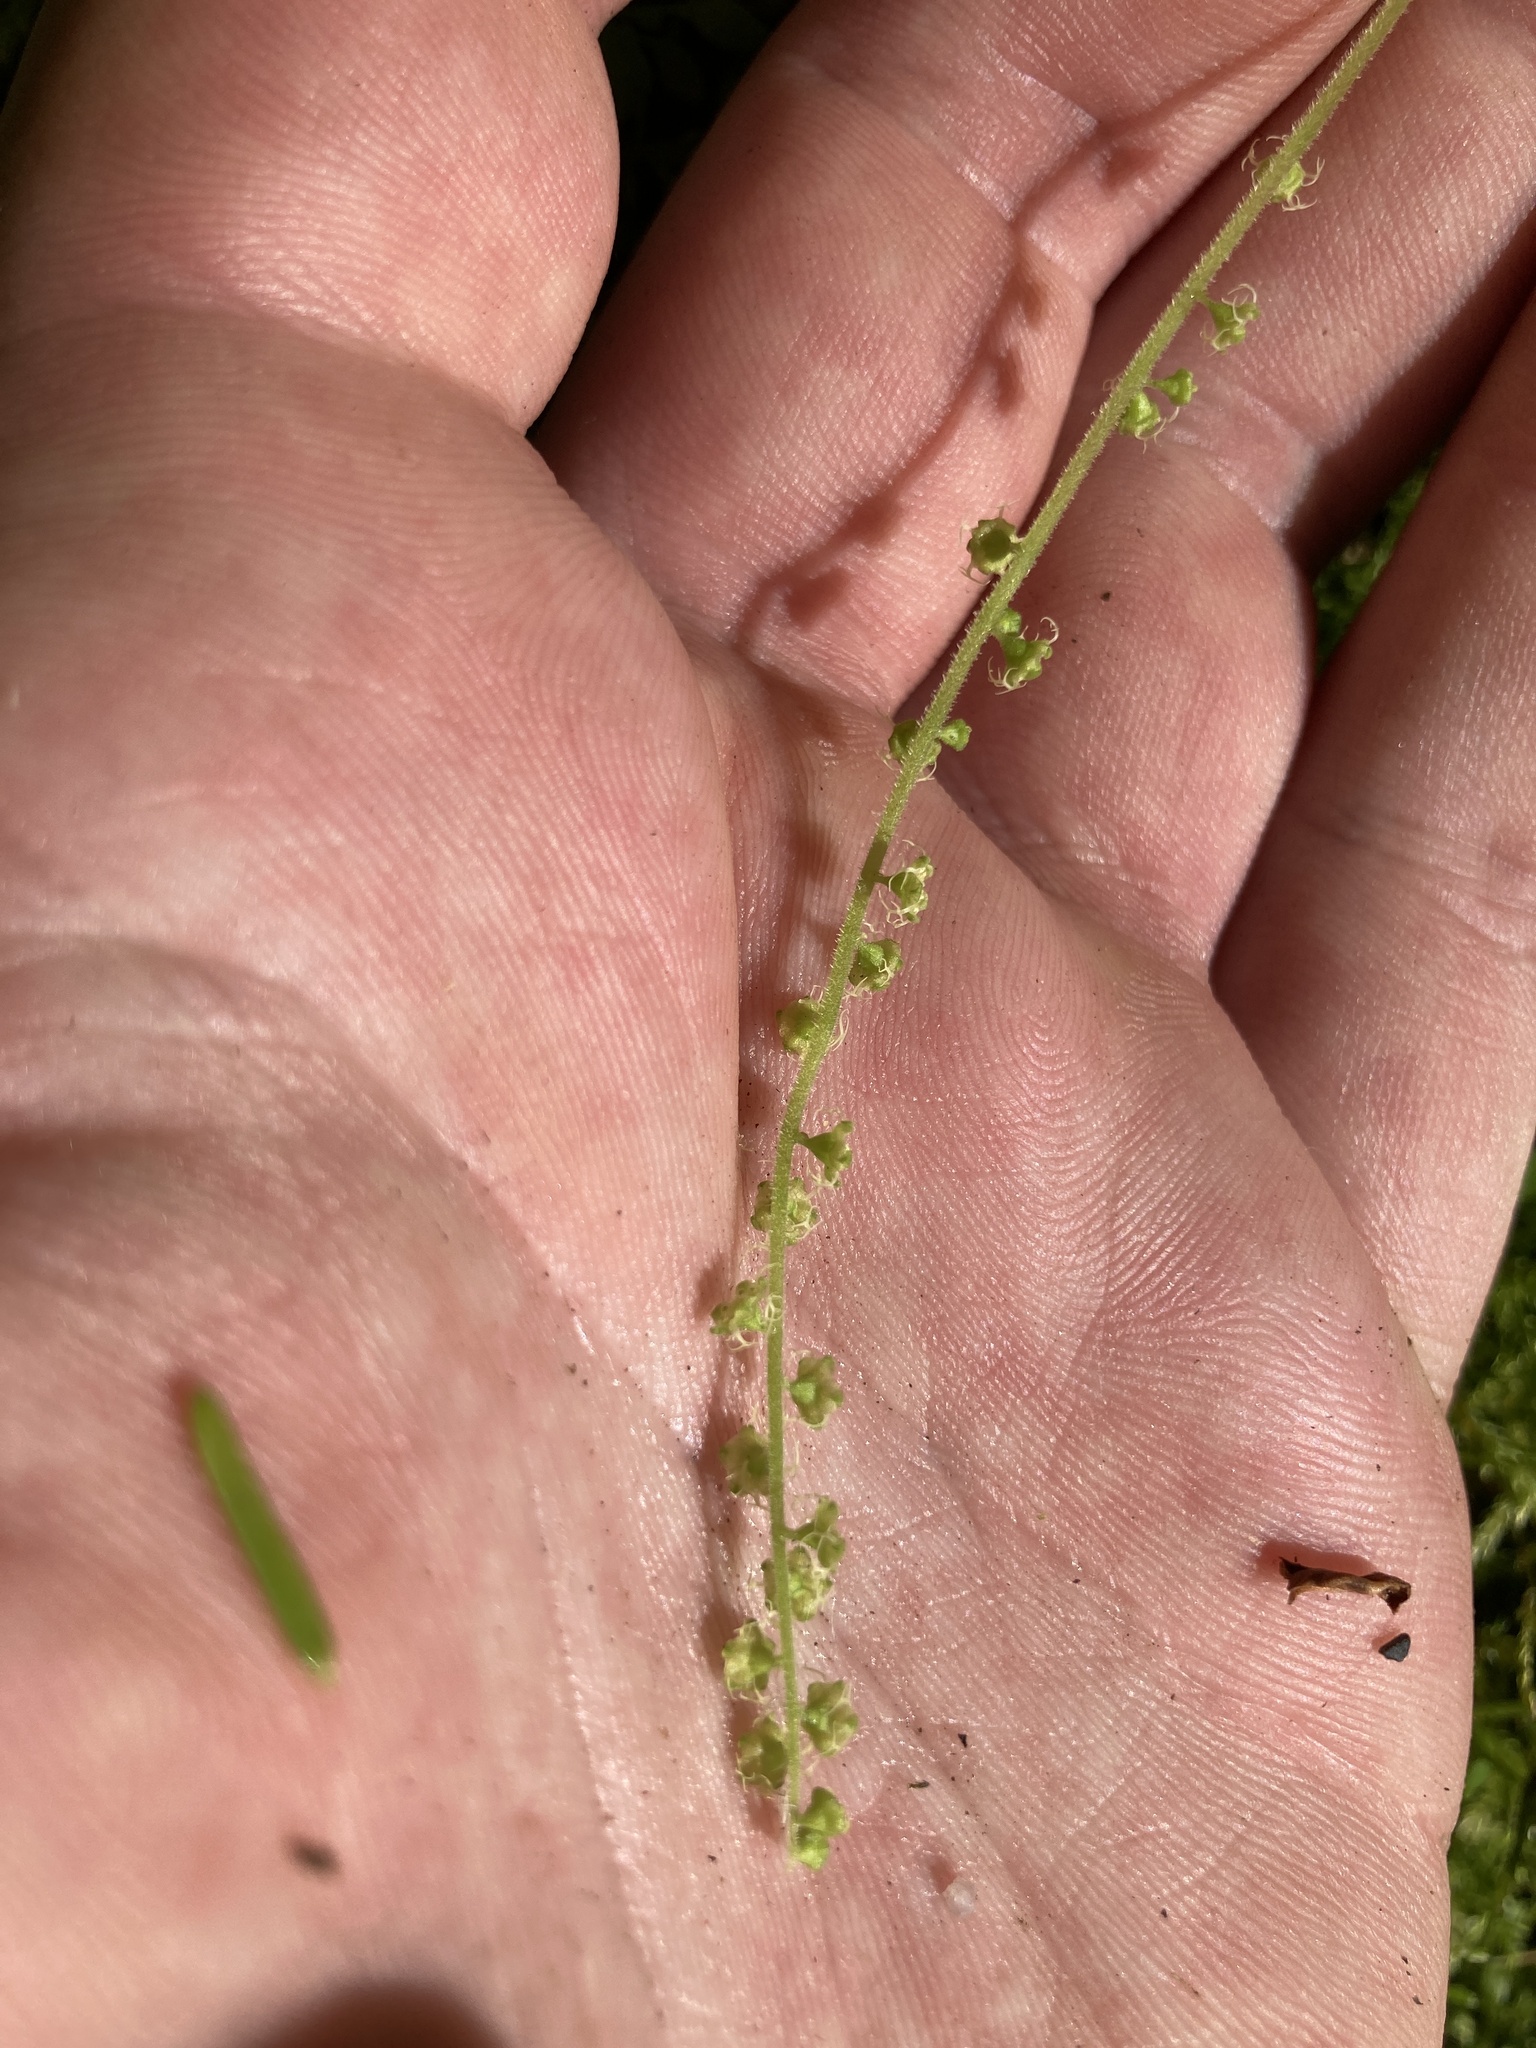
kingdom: Plantae
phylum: Tracheophyta
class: Magnoliopsida
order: Saxifragales
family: Saxifragaceae
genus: Brewerimitella
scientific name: Brewerimitella ovalis
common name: Coastal bishop's-cap
